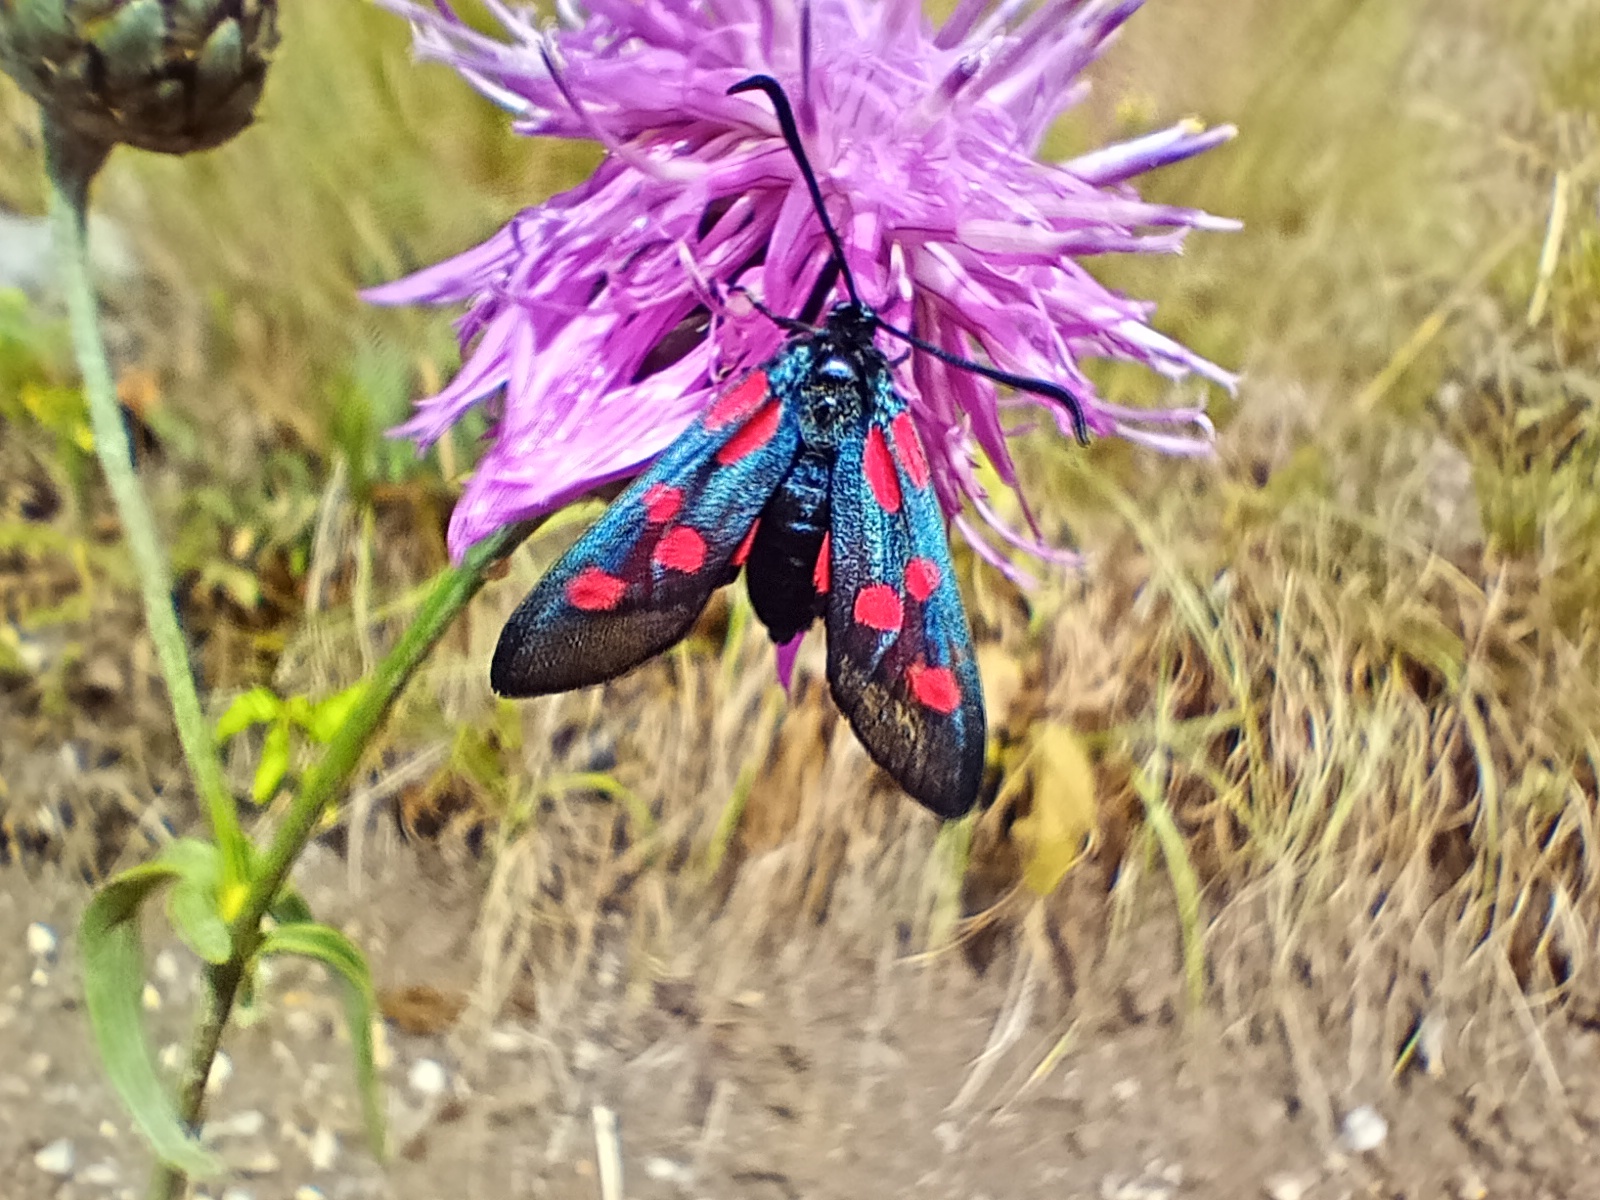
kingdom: Animalia
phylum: Arthropoda
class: Insecta
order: Lepidoptera
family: Zygaenidae
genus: Zygaena
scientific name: Zygaena lonicerae
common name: Narrow-bordered five-spot burnet
